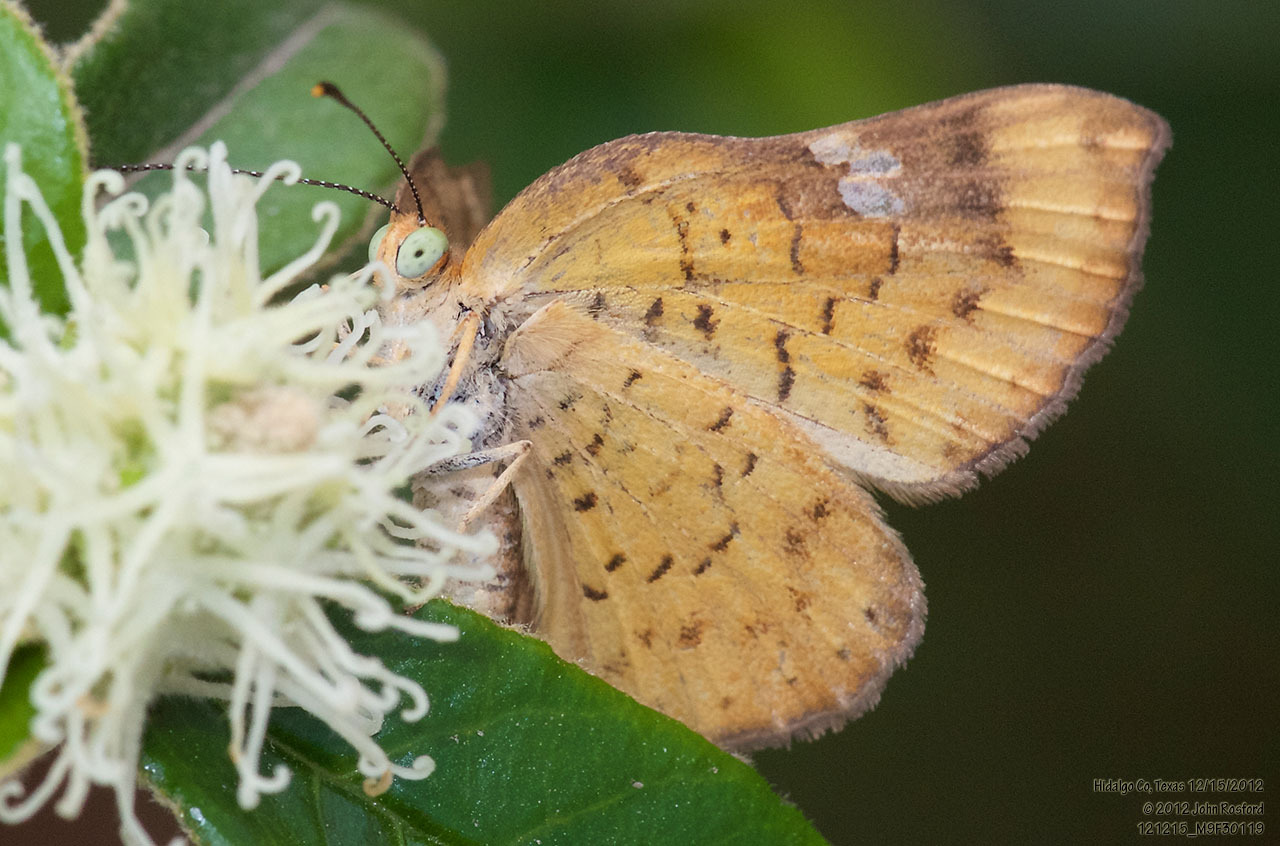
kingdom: Animalia
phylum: Arthropoda
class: Insecta
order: Lepidoptera
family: Riodinidae
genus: Curvie
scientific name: Curvie emesia
